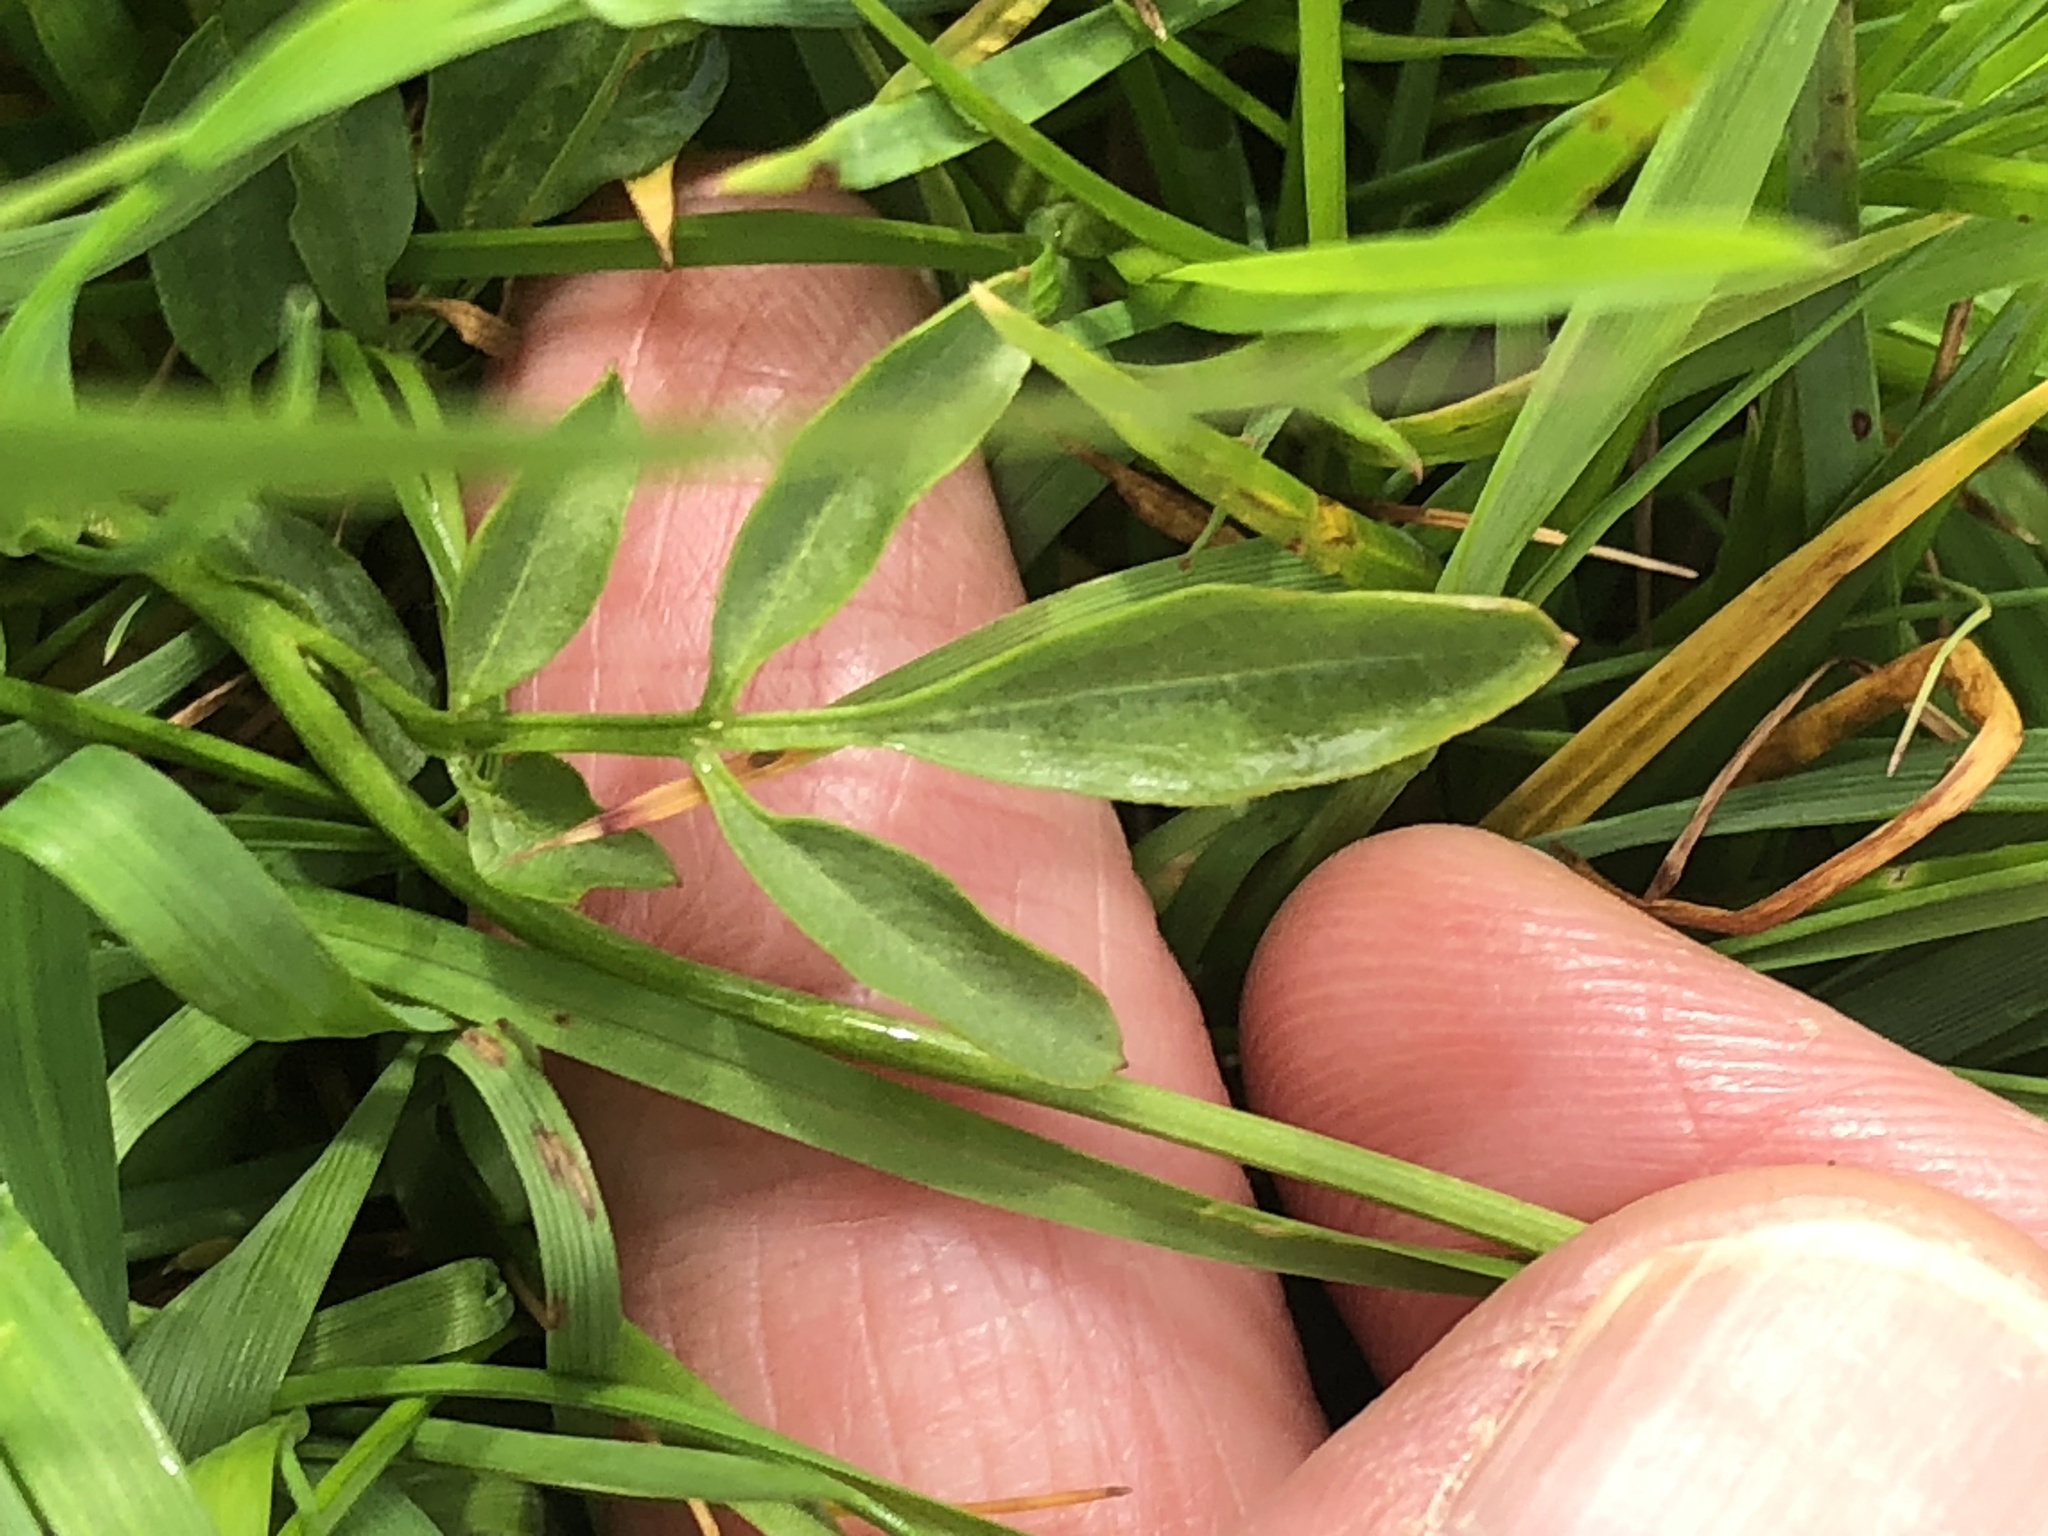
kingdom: Plantae
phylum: Tracheophyta
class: Magnoliopsida
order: Brassicales
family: Brassicaceae
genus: Cardamine
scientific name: Cardamine pratensis
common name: Cuckoo flower
